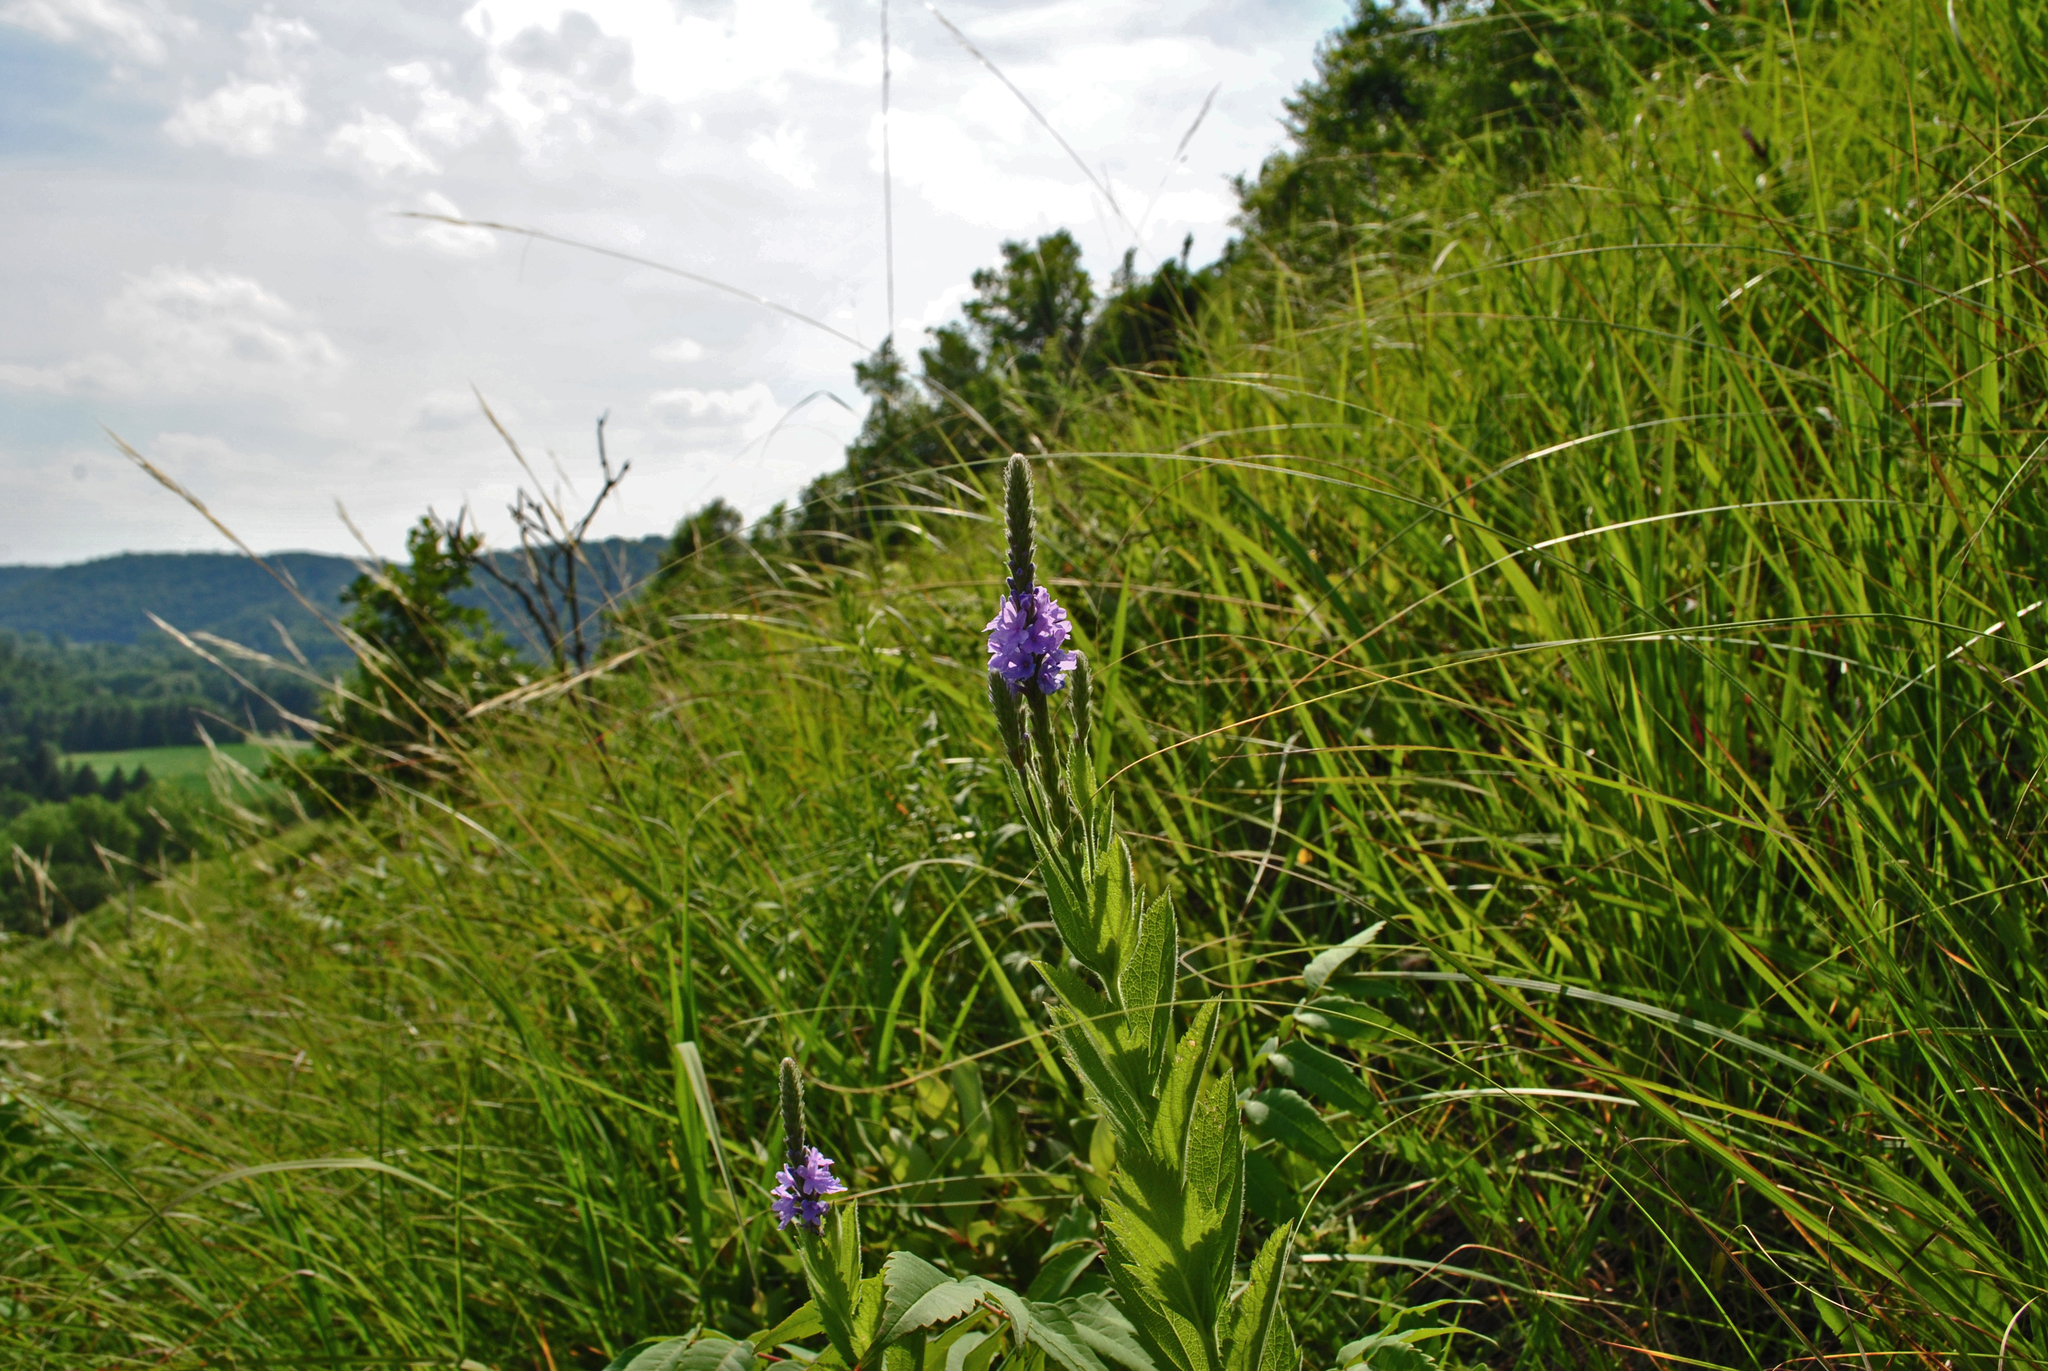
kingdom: Plantae
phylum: Tracheophyta
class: Magnoliopsida
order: Lamiales
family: Verbenaceae
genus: Verbena
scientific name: Verbena stricta
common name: Hoary vervain
